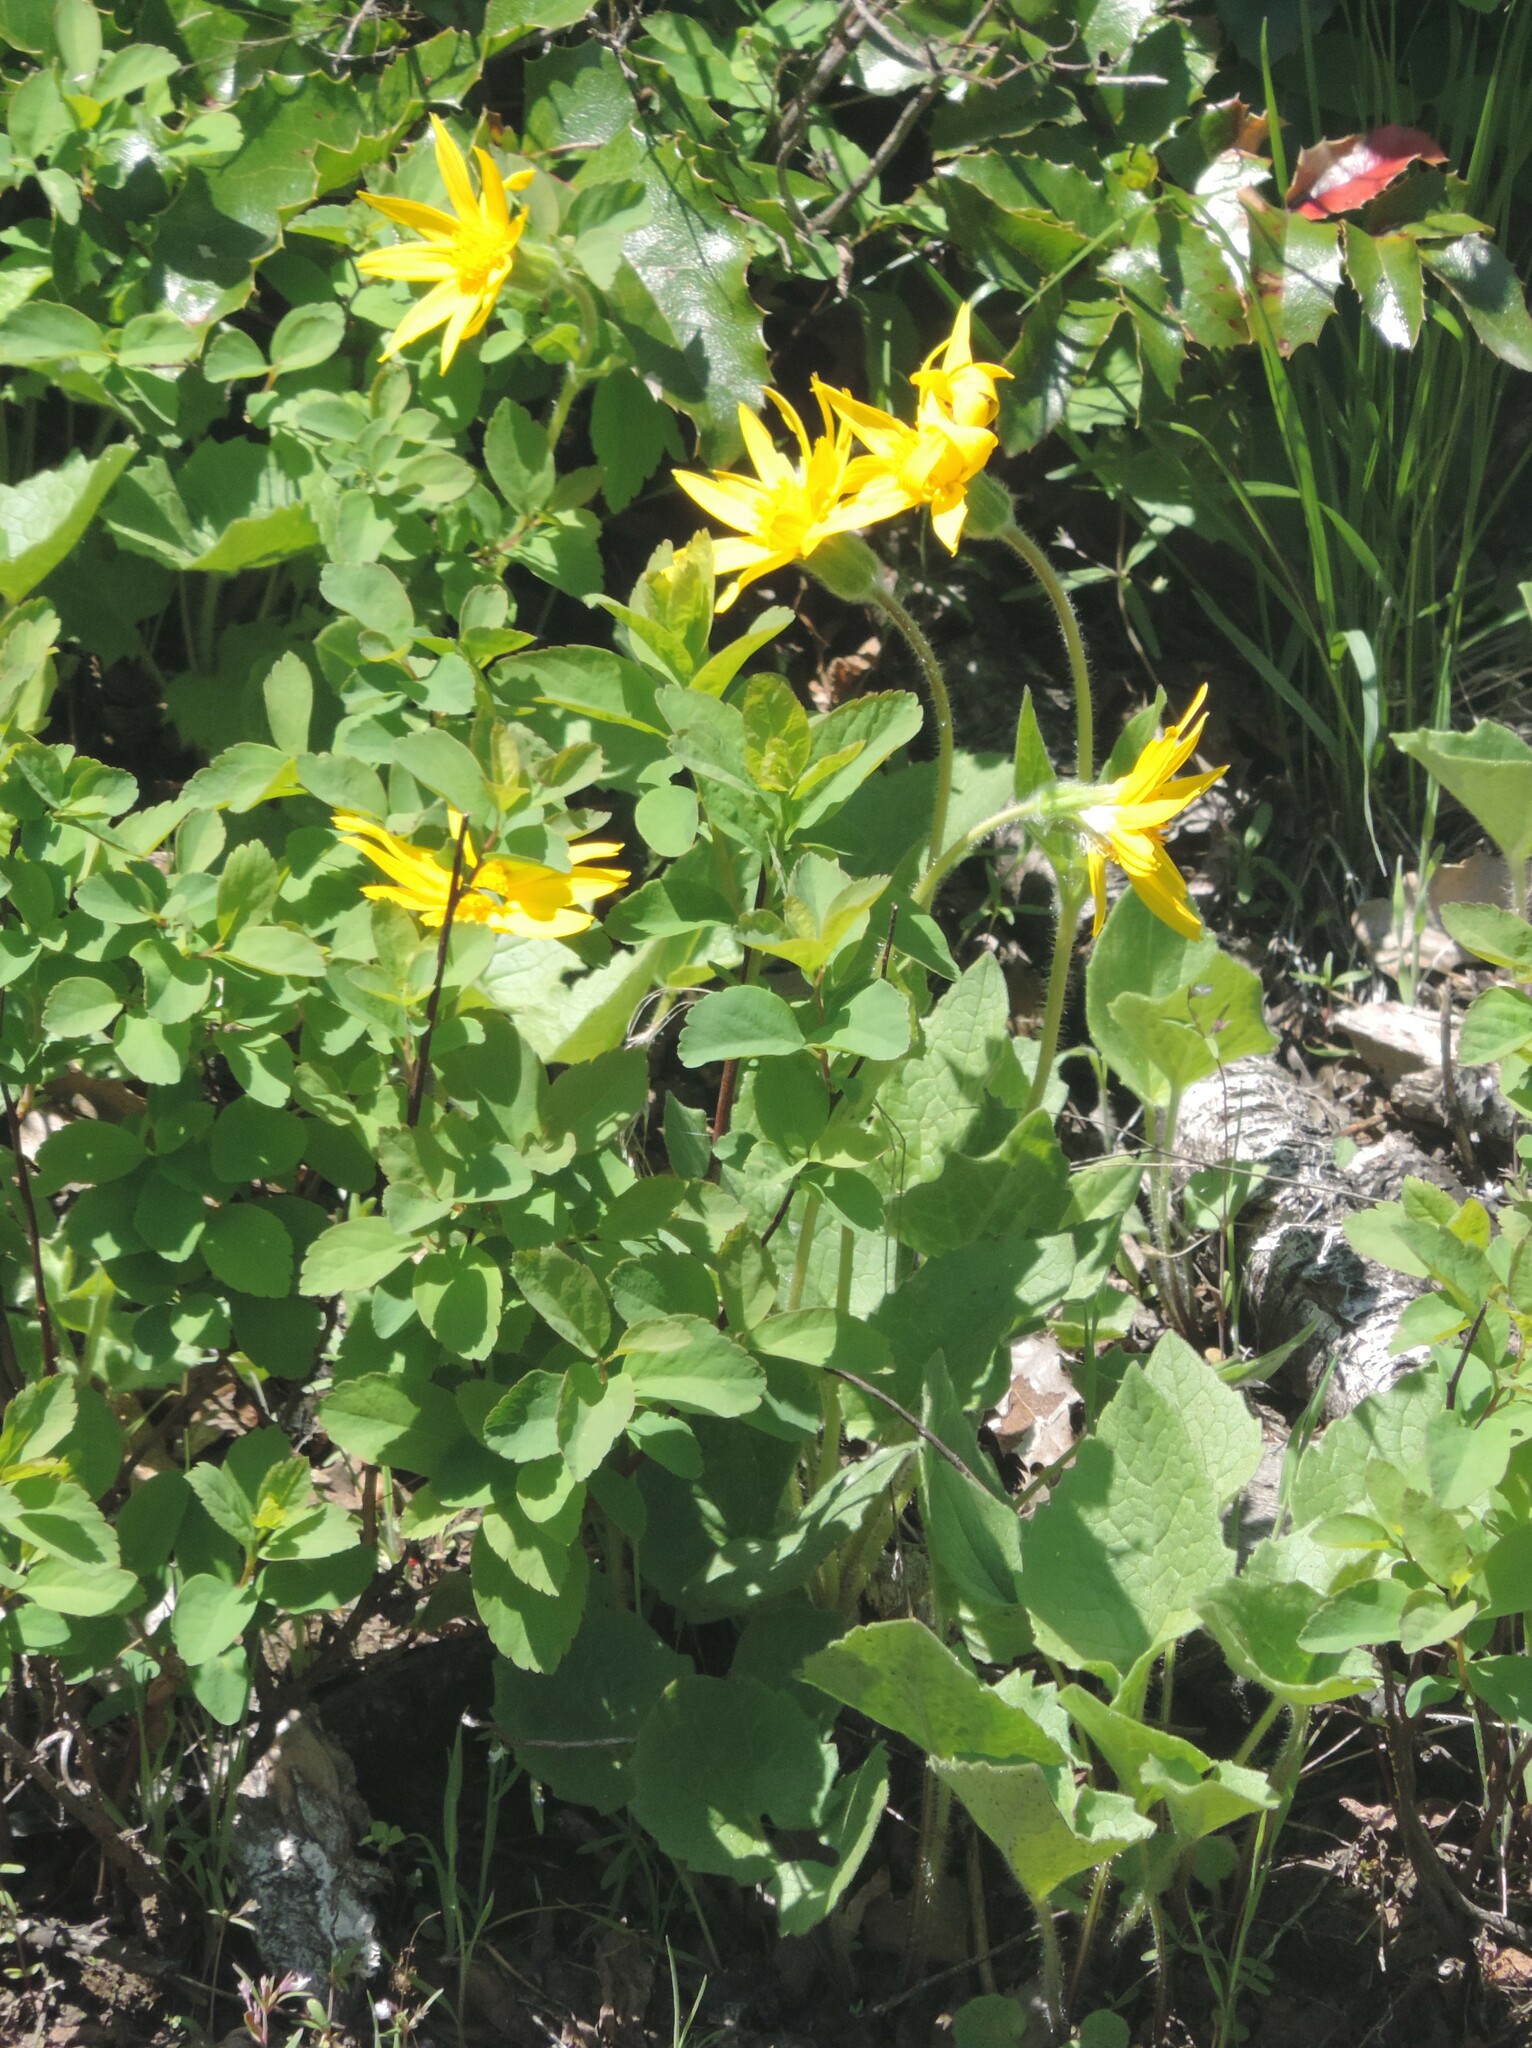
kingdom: Plantae
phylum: Tracheophyta
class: Magnoliopsida
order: Asterales
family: Asteraceae
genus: Arnica
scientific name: Arnica cordifolia
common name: Heart-leaf arnica
